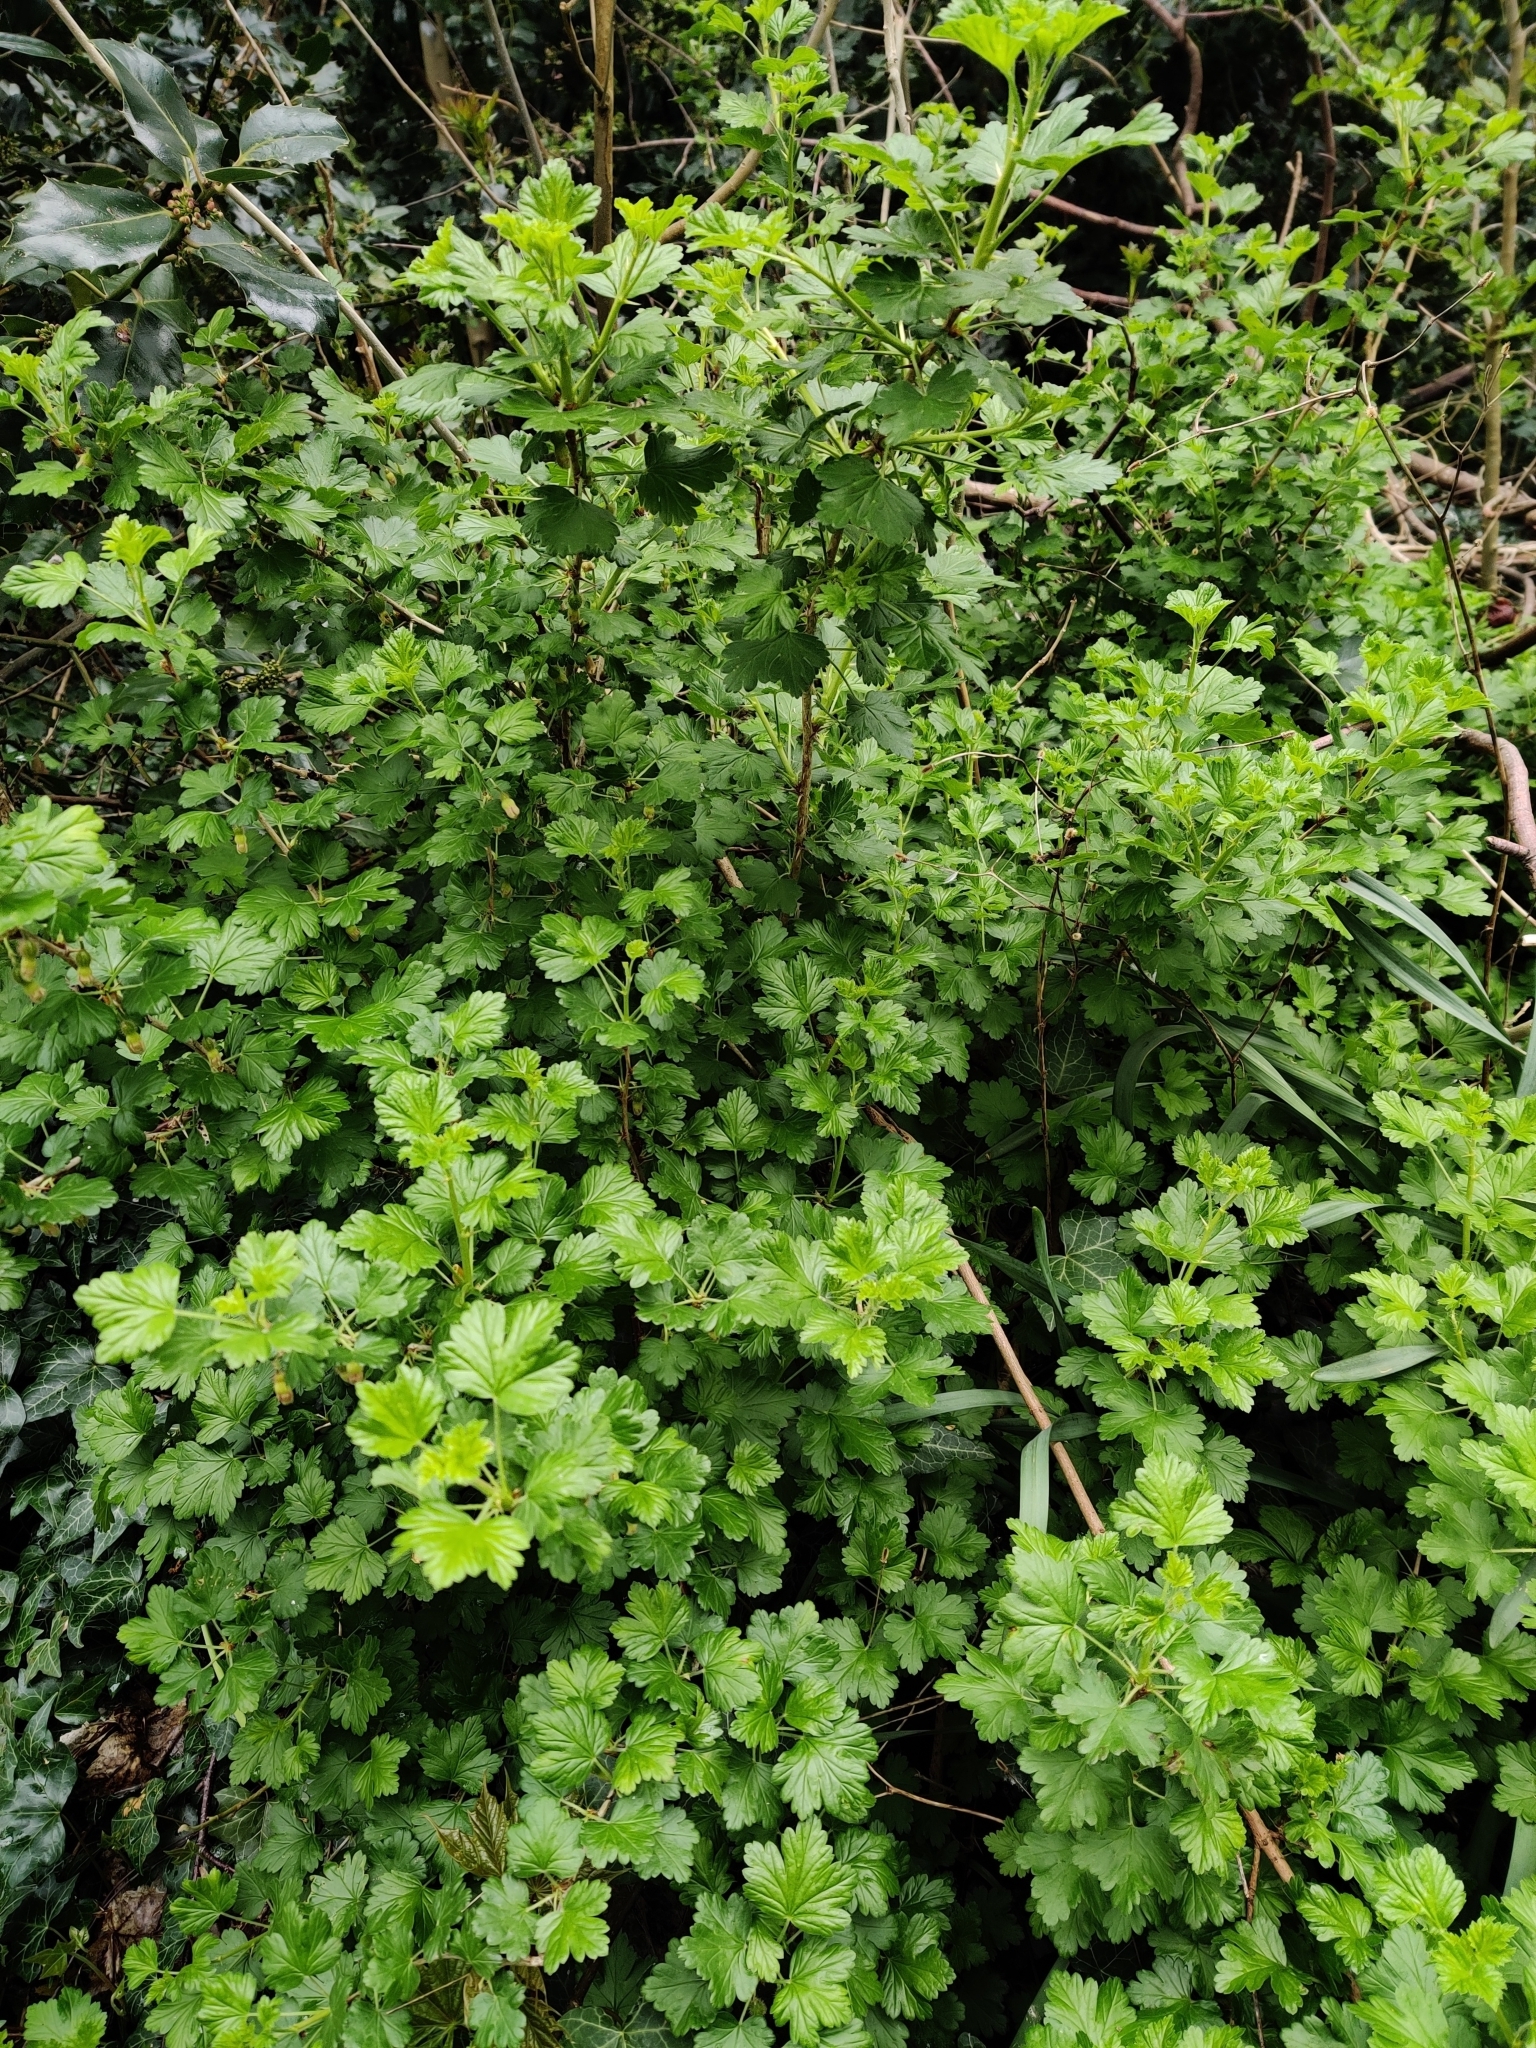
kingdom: Plantae
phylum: Tracheophyta
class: Magnoliopsida
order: Saxifragales
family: Grossulariaceae
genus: Ribes
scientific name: Ribes uva-crispa
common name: Gooseberry
